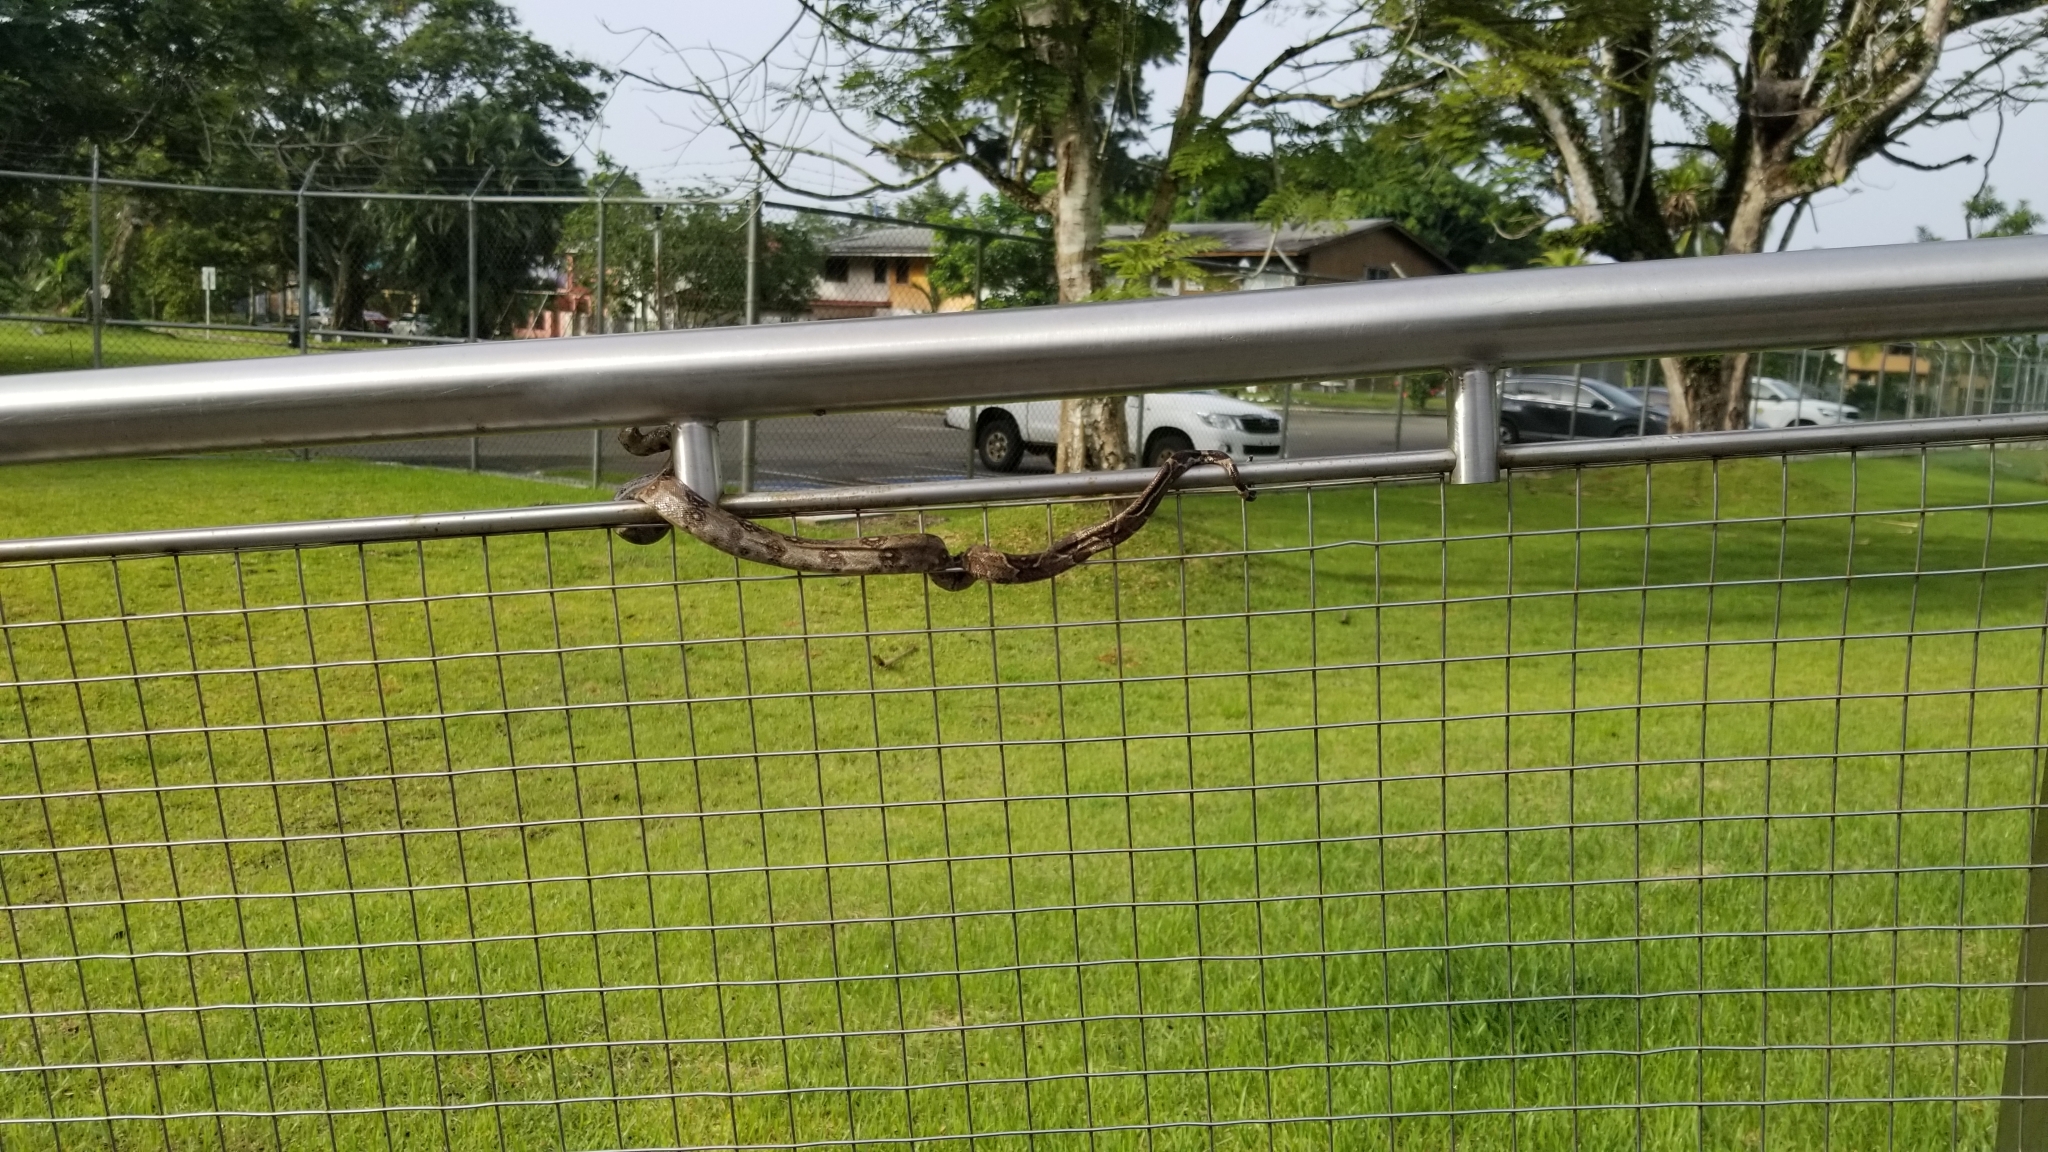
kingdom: Animalia
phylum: Chordata
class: Squamata
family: Boidae
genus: Boa
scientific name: Boa imperator
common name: Central american boa
